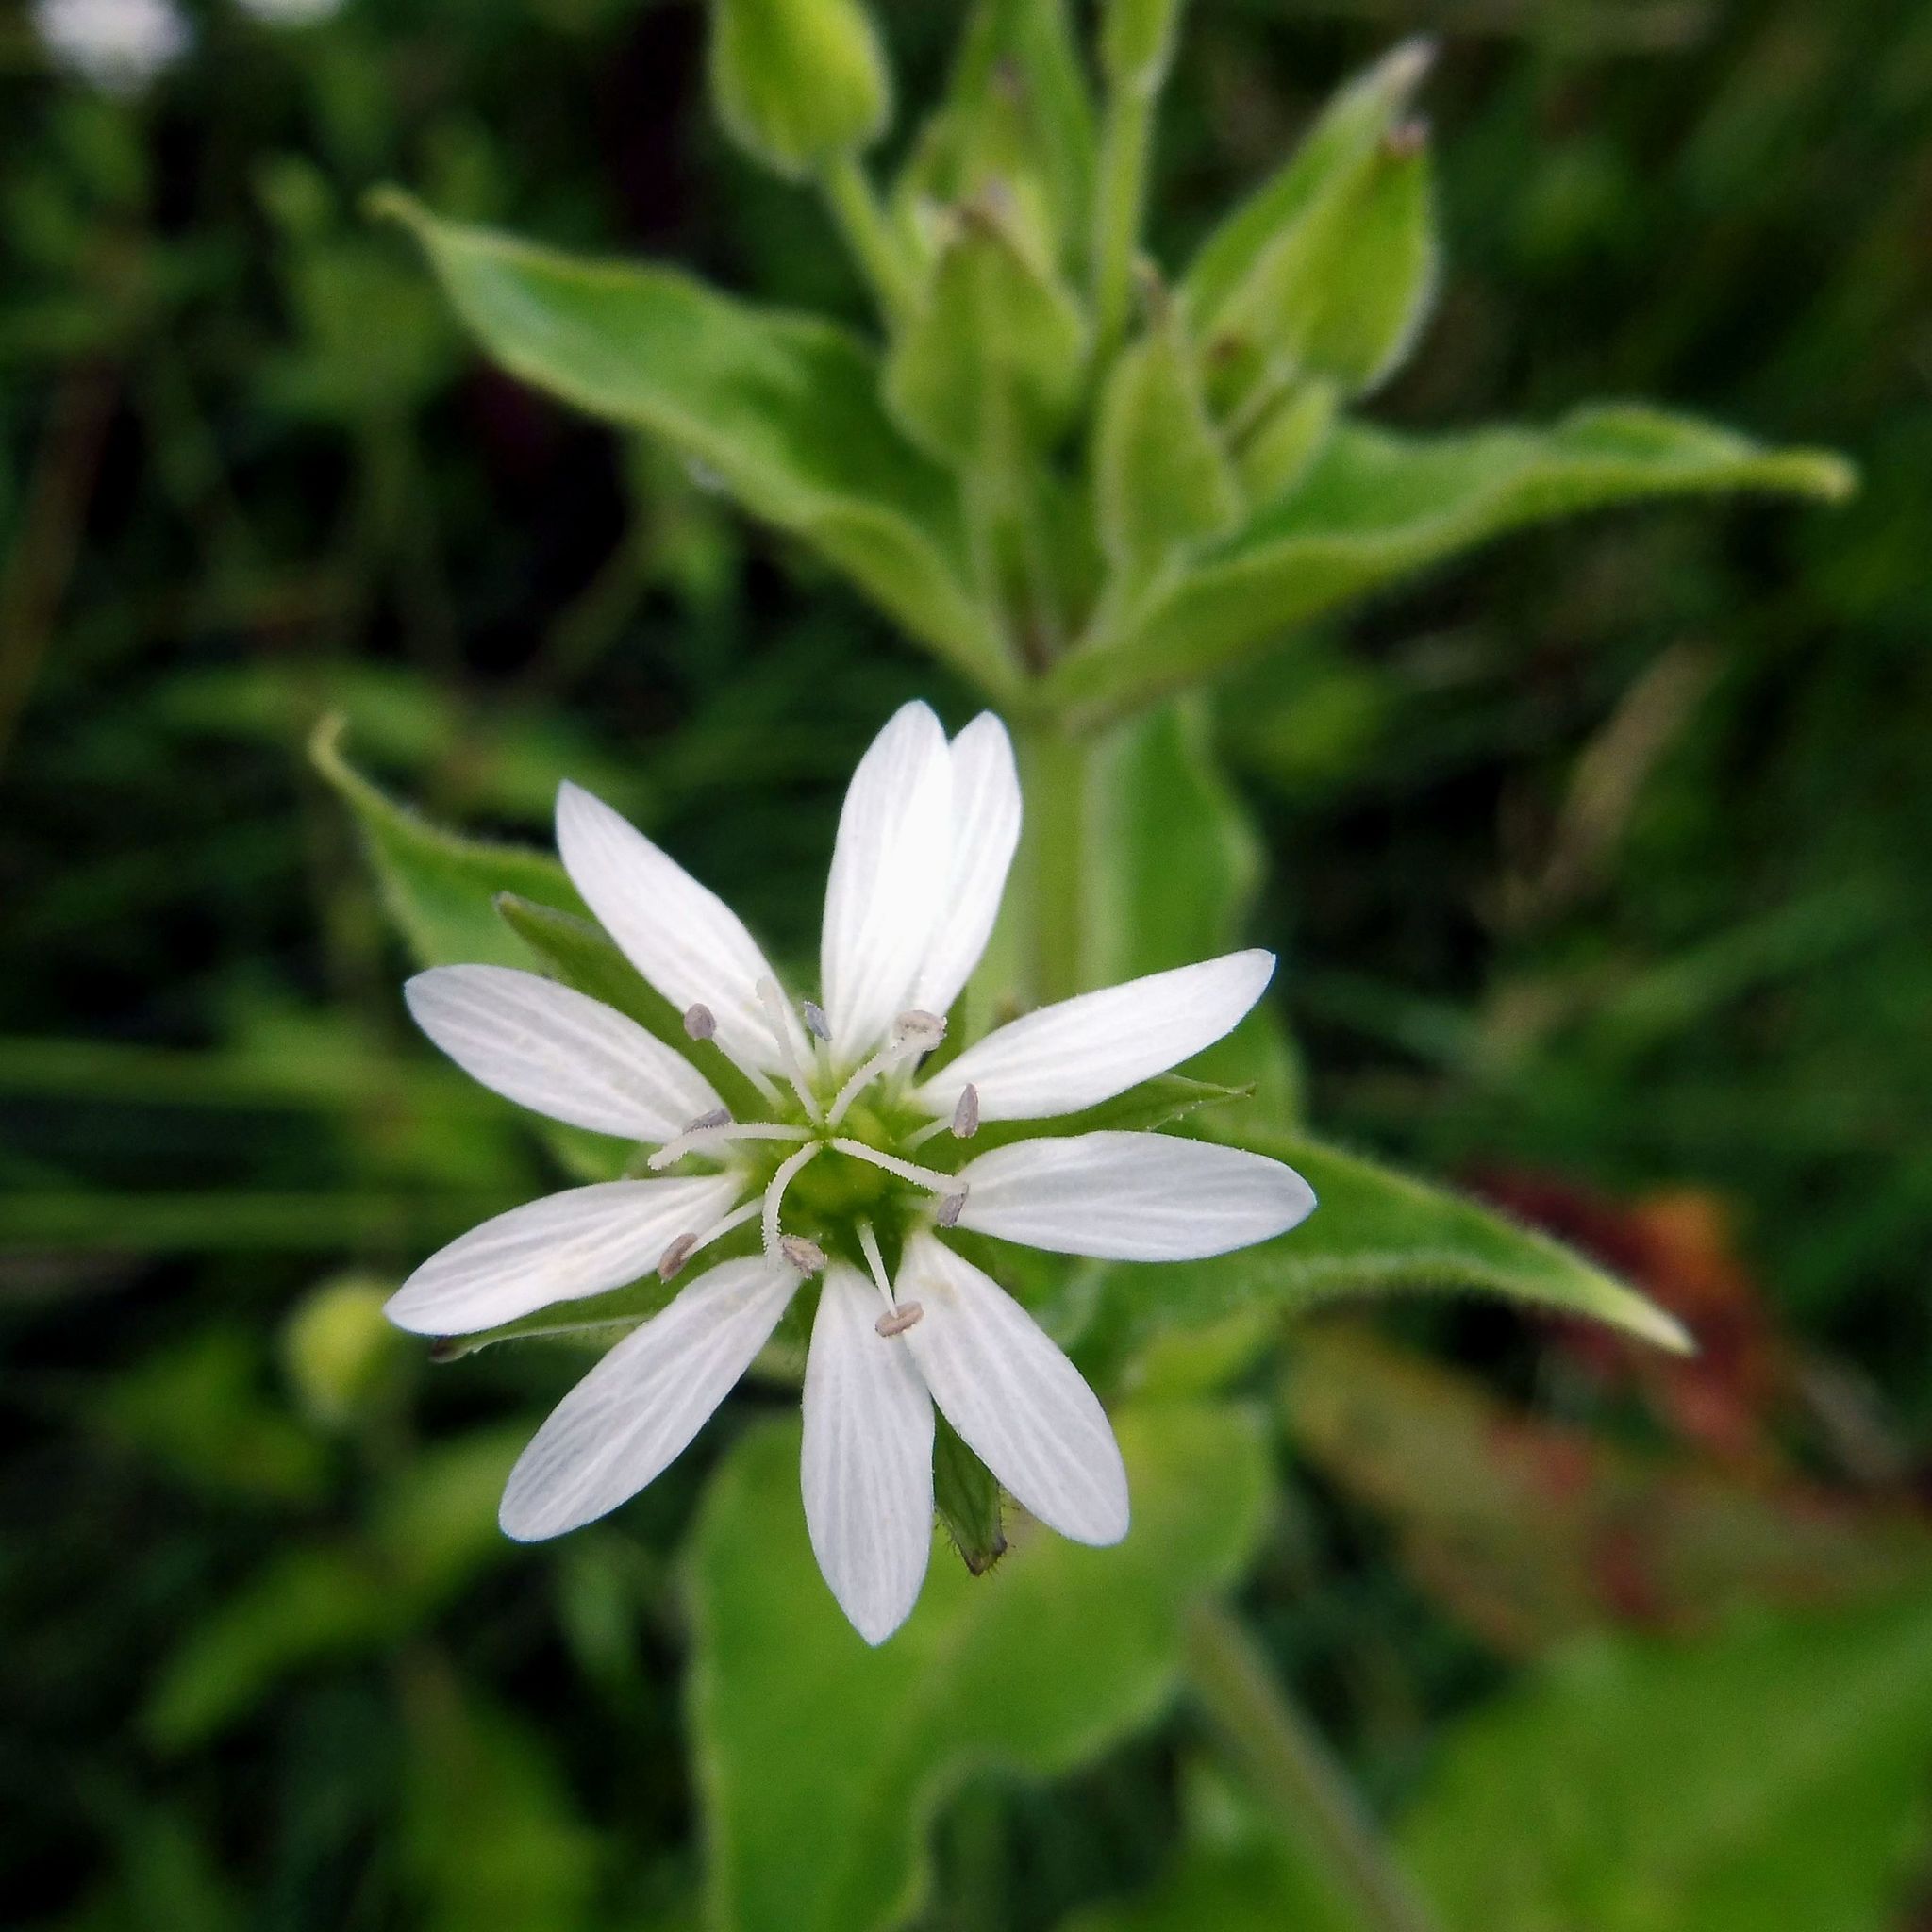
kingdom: Plantae
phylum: Tracheophyta
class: Magnoliopsida
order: Caryophyllales
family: Caryophyllaceae
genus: Stellaria
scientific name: Stellaria aquatica
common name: Water chickweed
